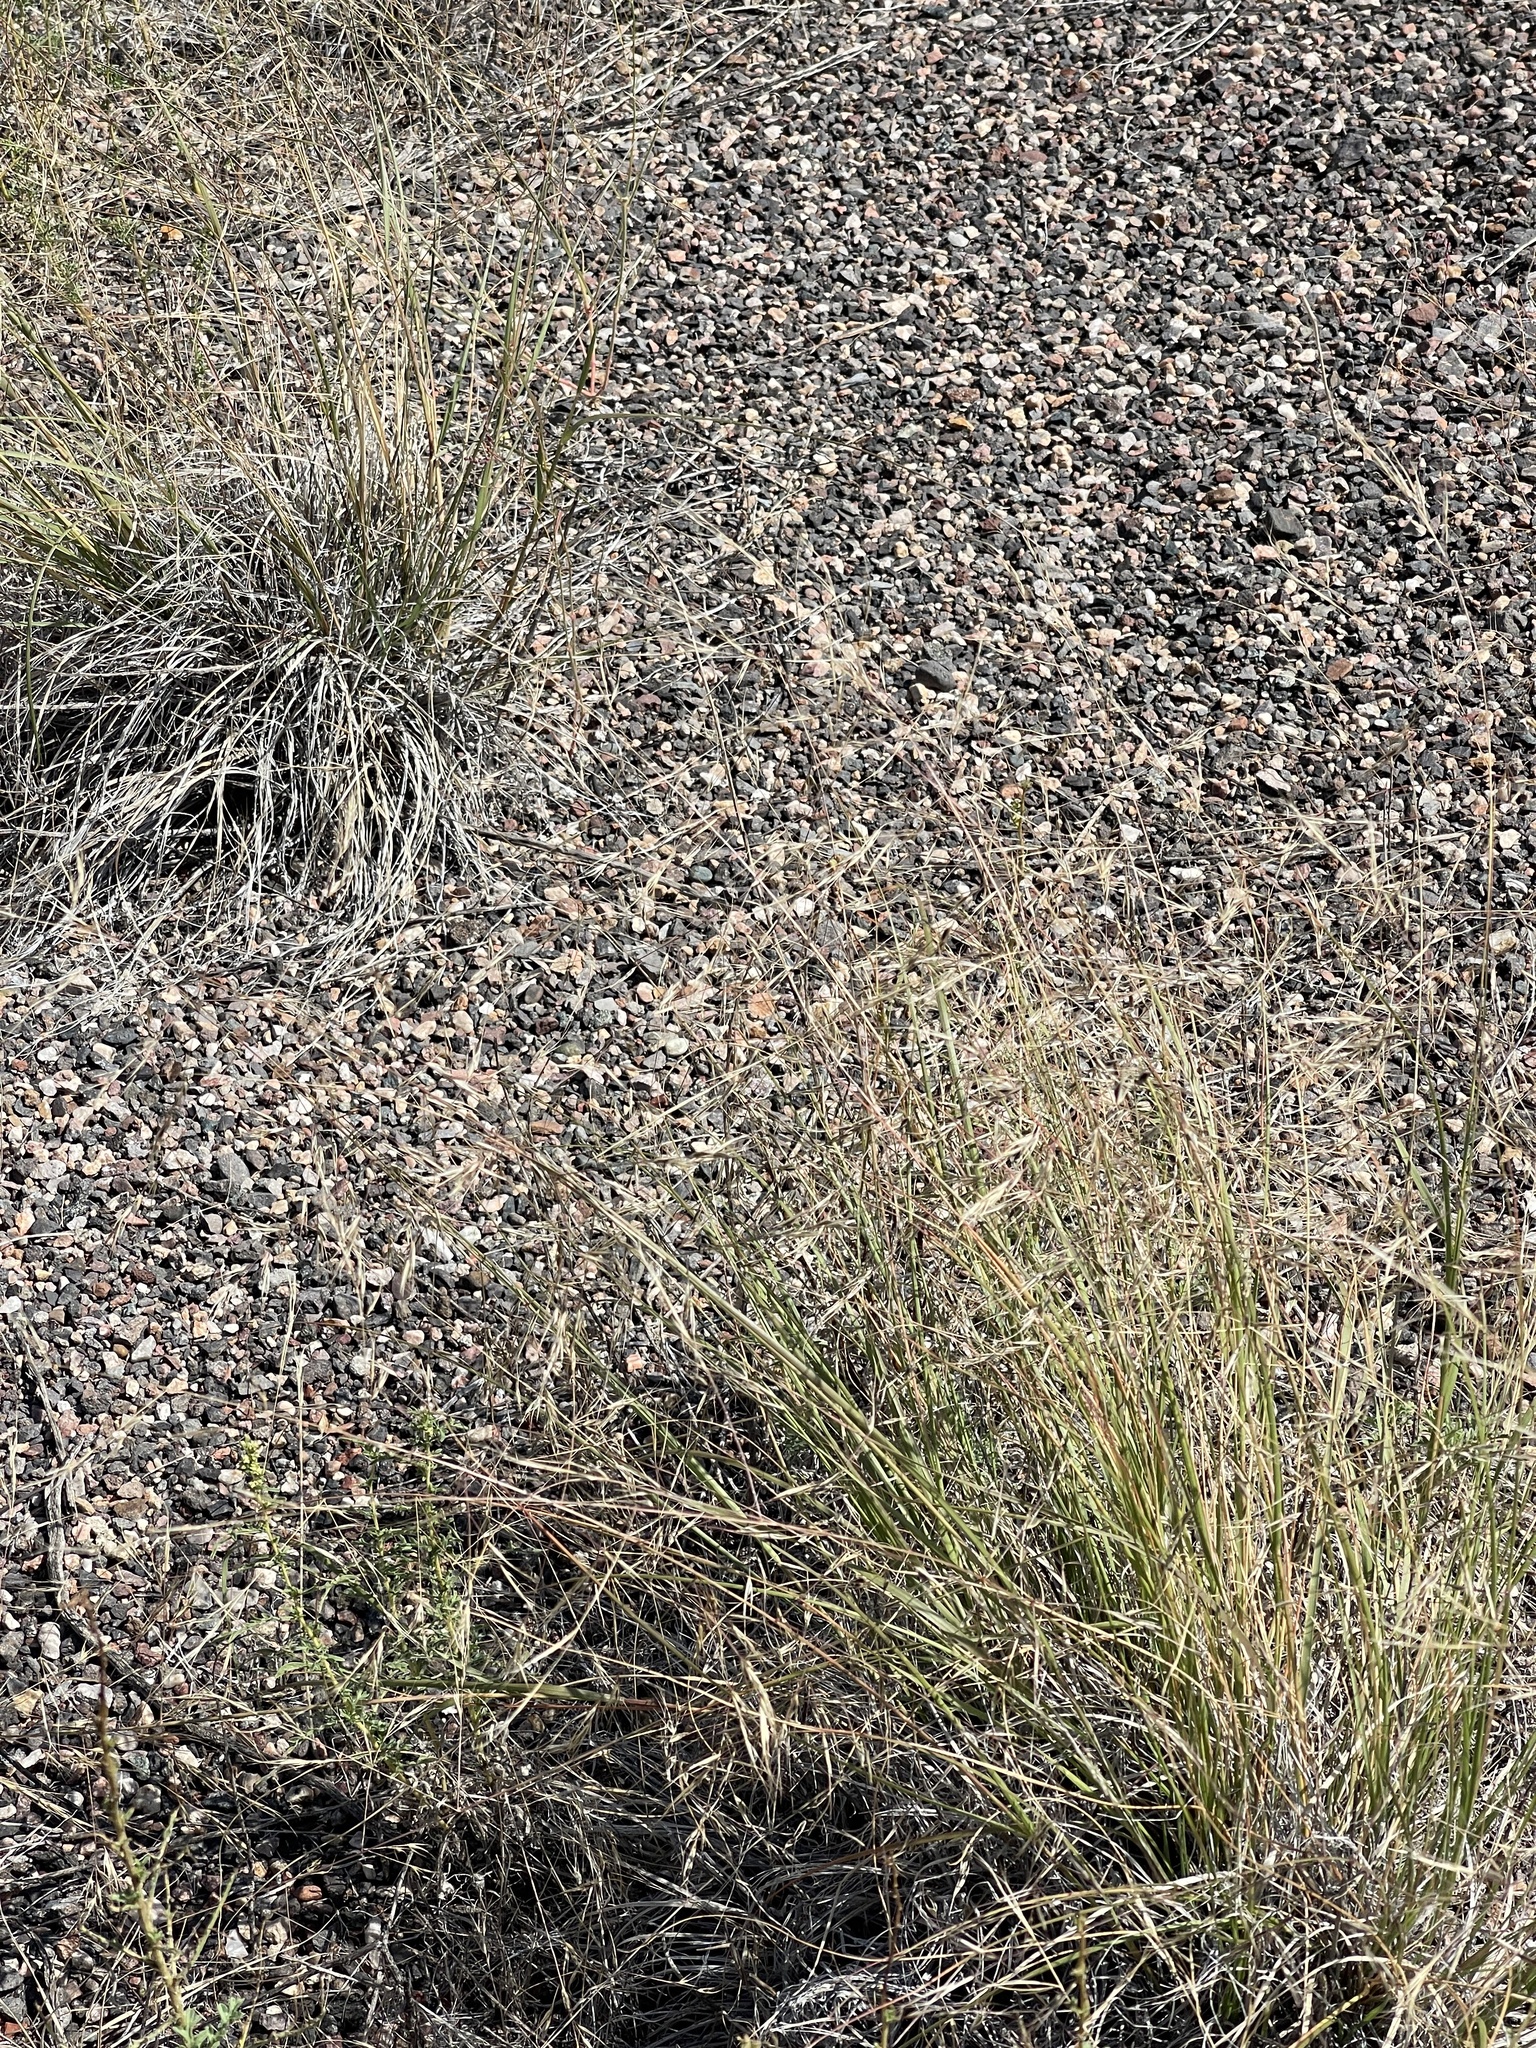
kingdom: Plantae
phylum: Tracheophyta
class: Liliopsida
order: Poales
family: Poaceae
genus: Eriocoma
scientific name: Eriocoma hymenoides
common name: Indian mountain ricegrass
